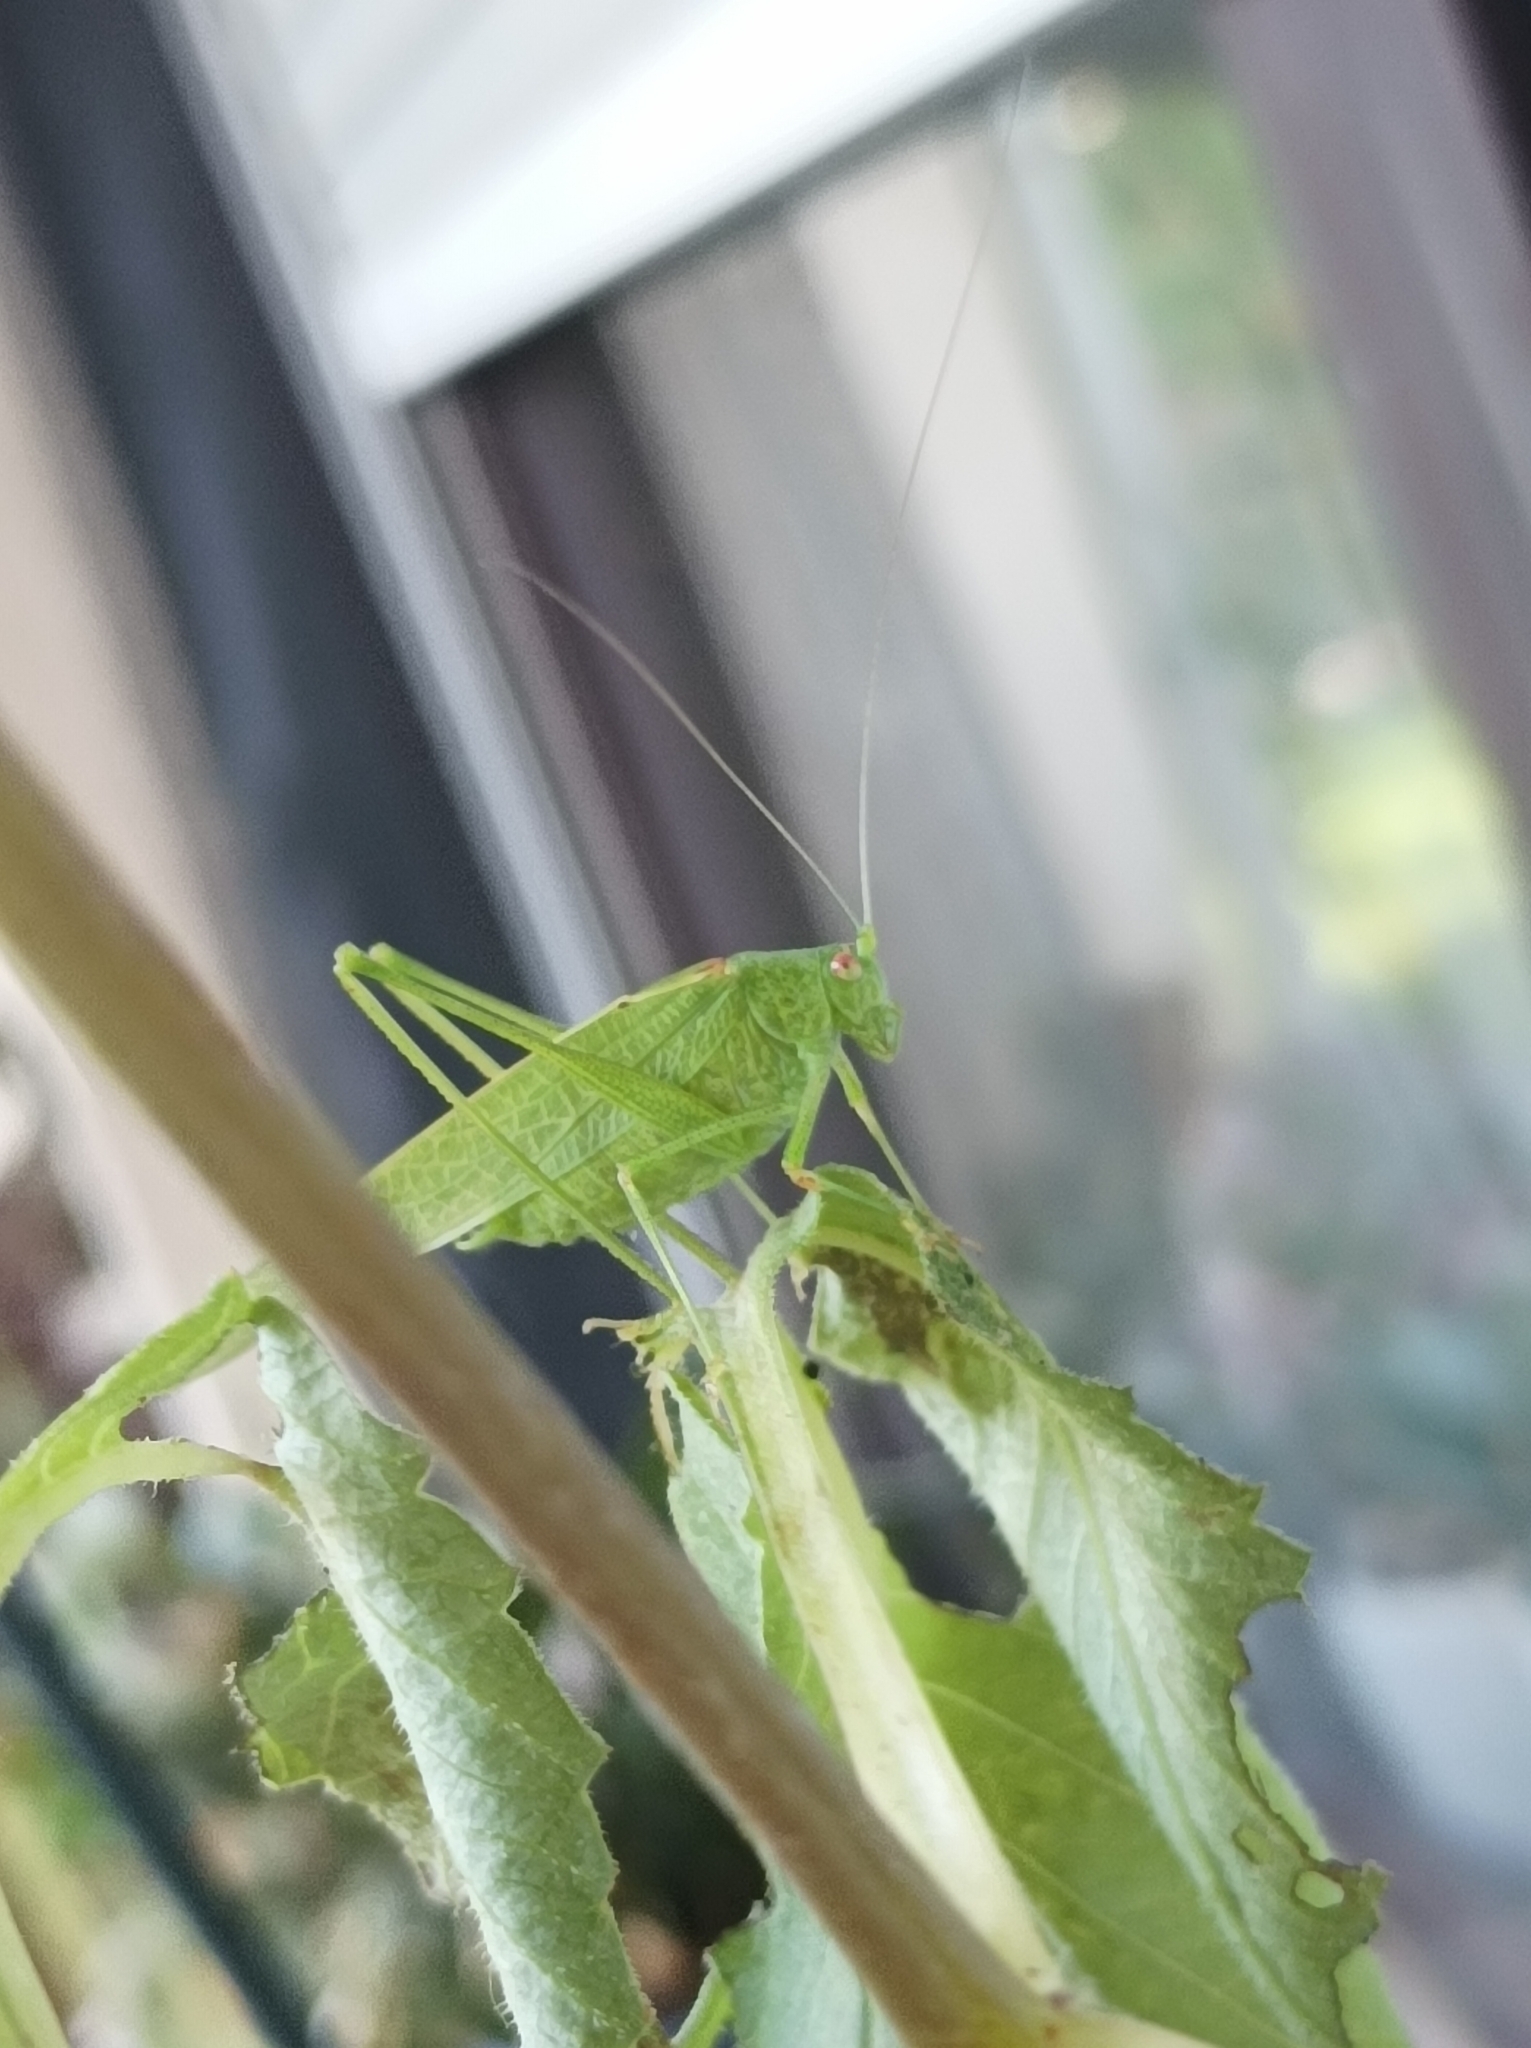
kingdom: Animalia
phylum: Arthropoda
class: Insecta
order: Orthoptera
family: Tettigoniidae
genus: Phaneroptera
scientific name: Phaneroptera nana
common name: Southern sickle bush-cricket
